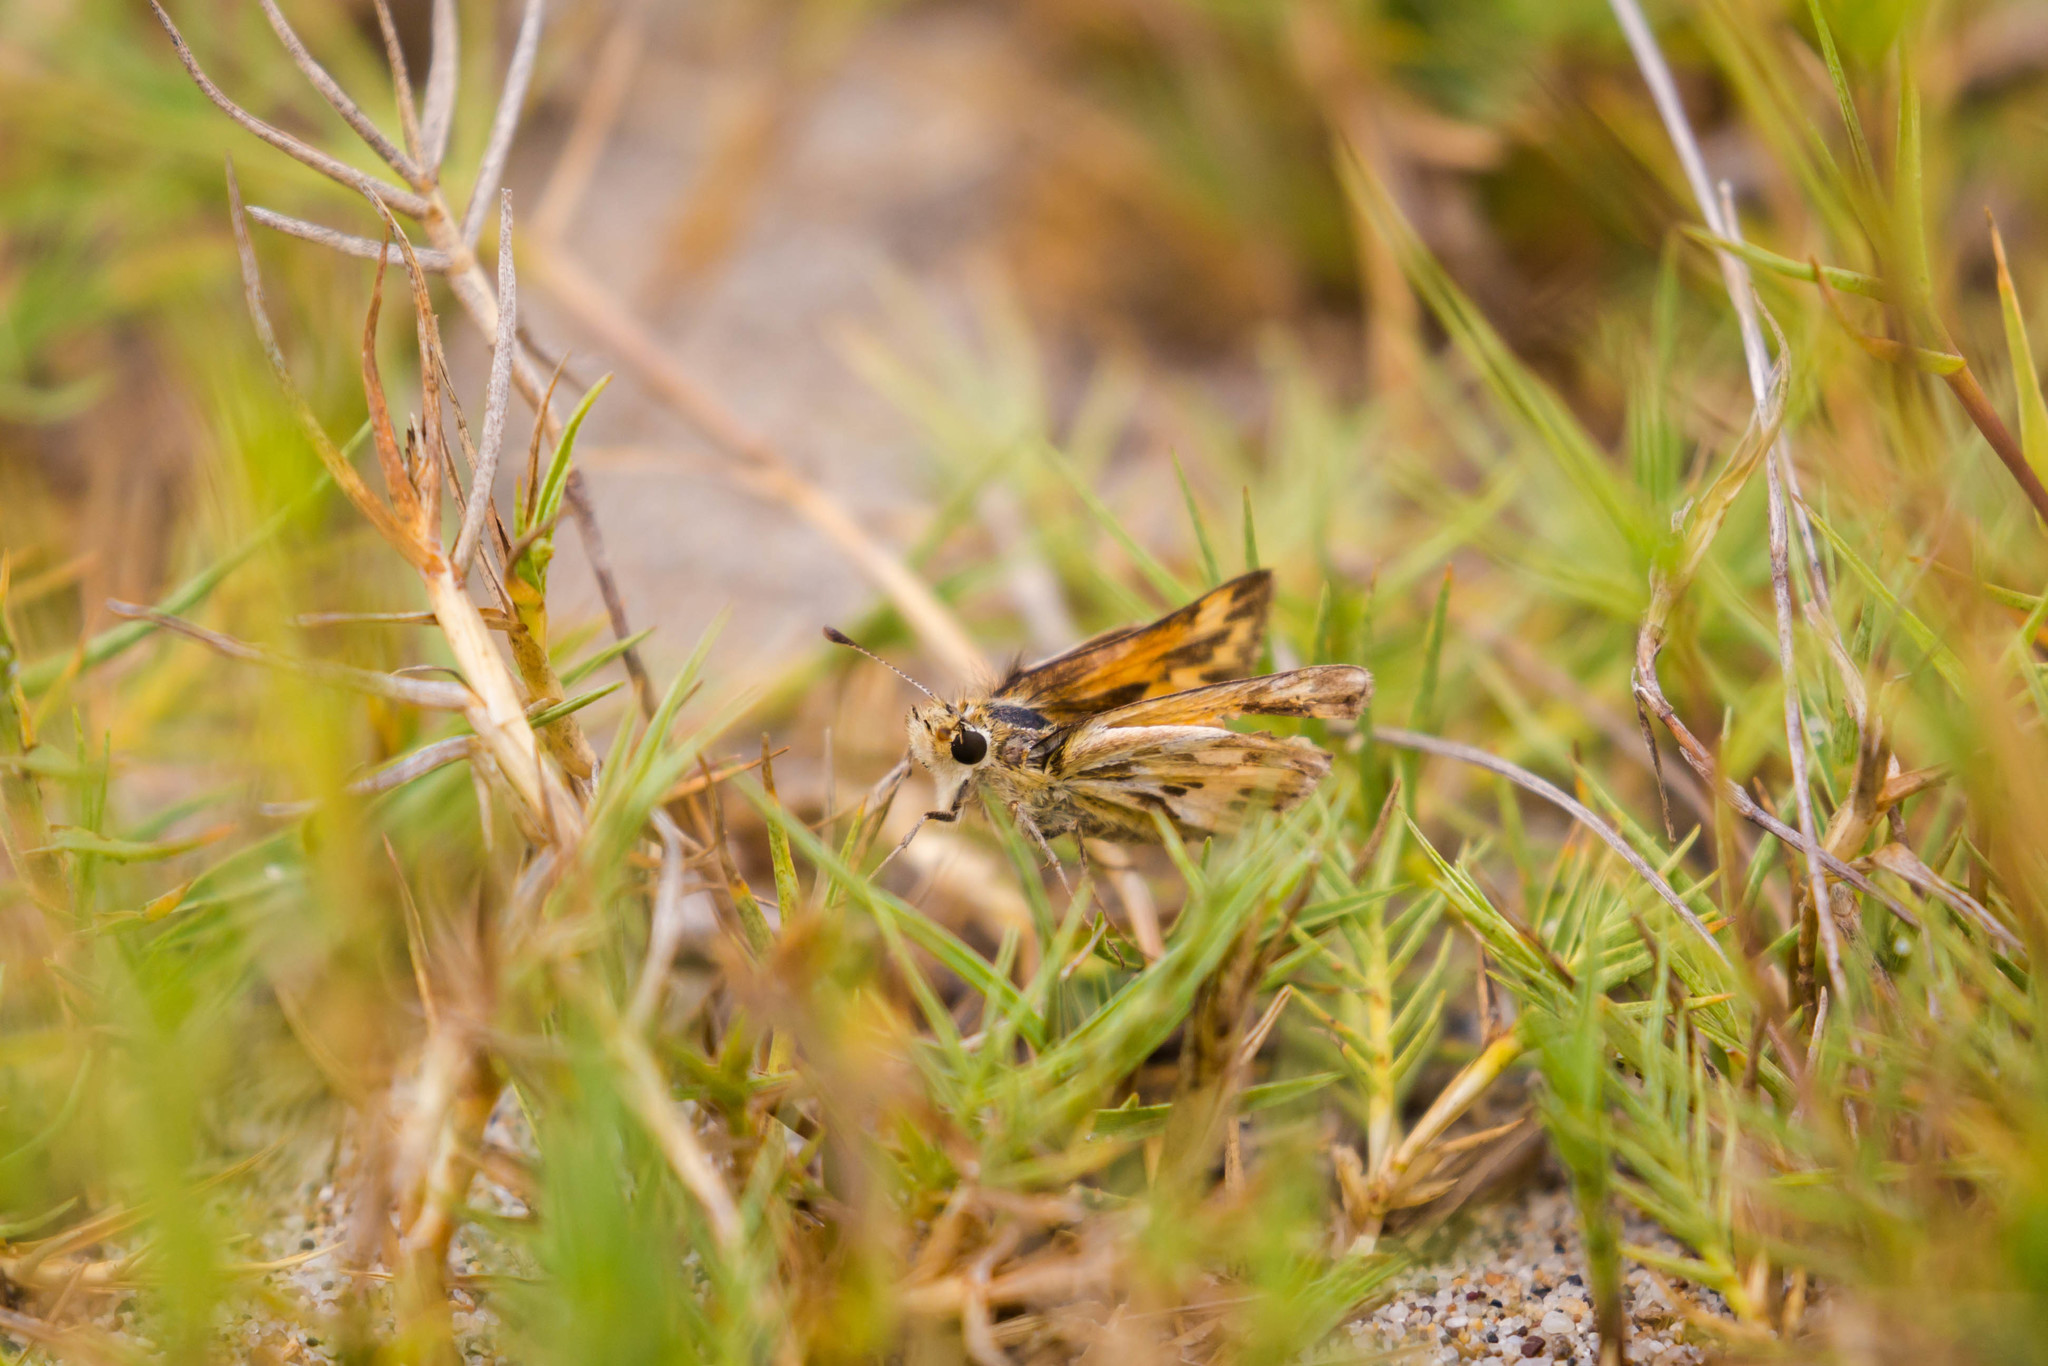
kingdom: Animalia
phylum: Arthropoda
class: Insecta
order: Lepidoptera
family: Hesperiidae
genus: Polites
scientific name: Polites sabuleti
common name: Sandhill skipper
